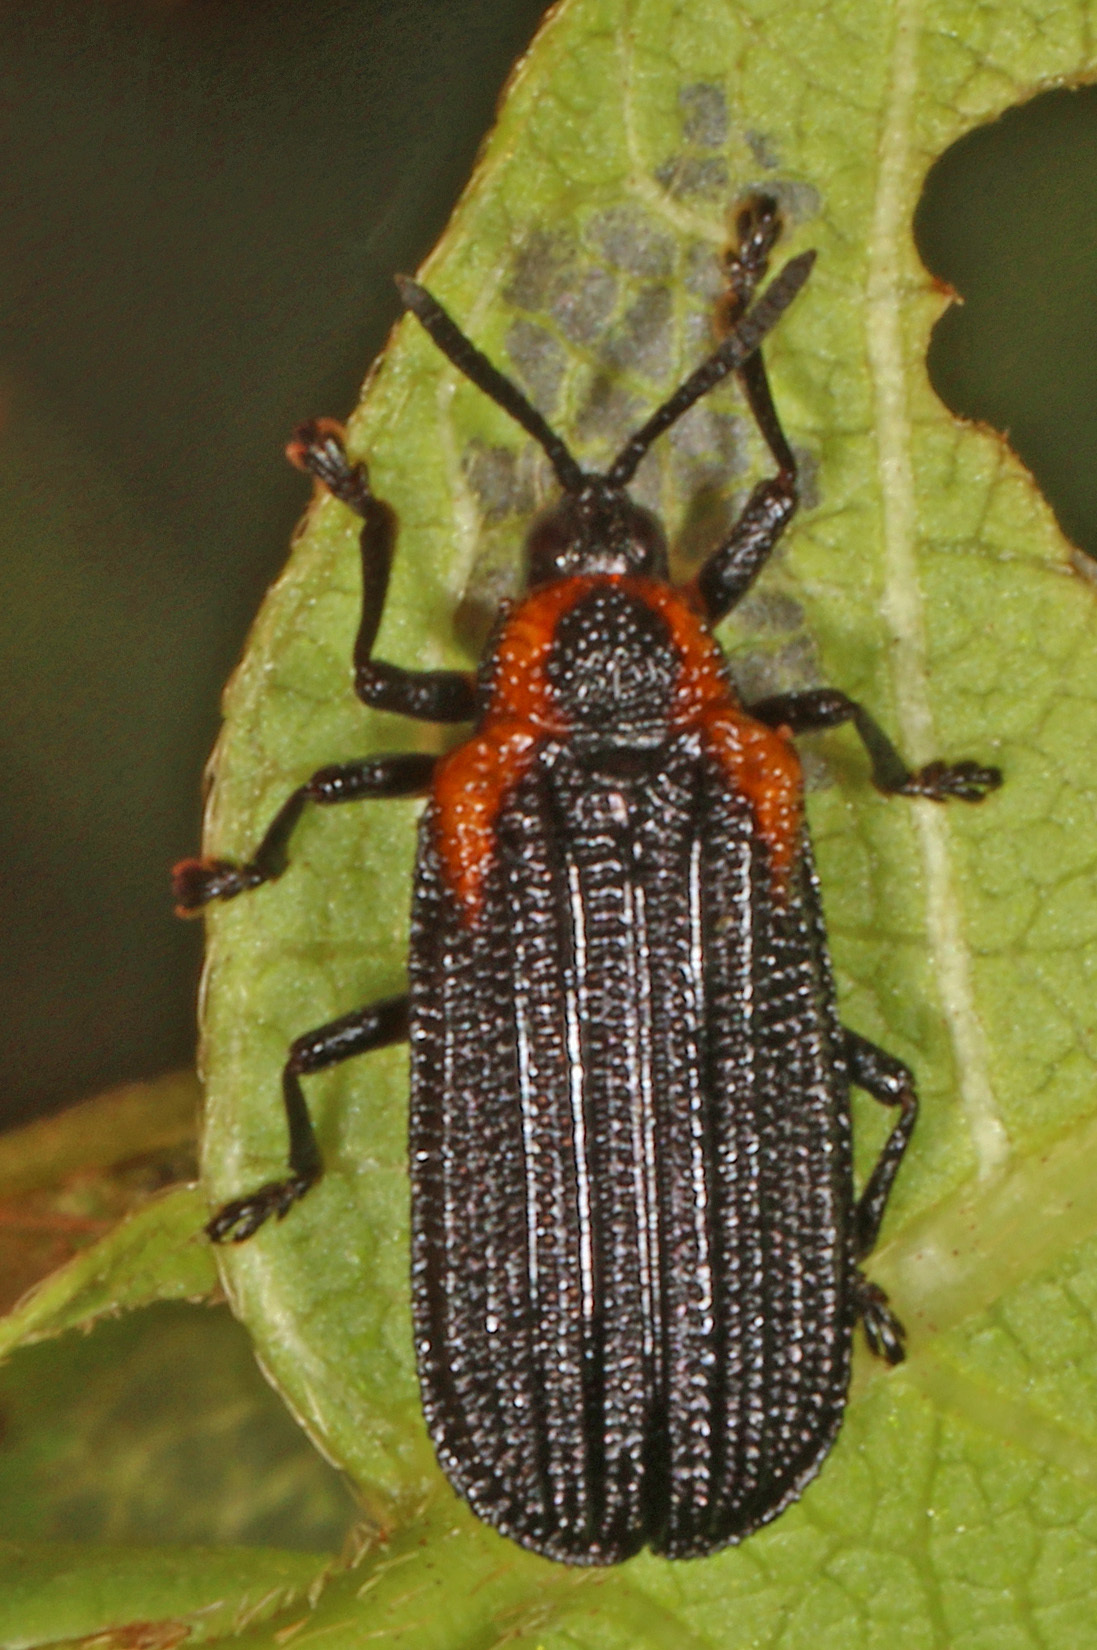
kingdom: Animalia
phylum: Arthropoda
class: Insecta
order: Coleoptera
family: Chrysomelidae
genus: Odontota
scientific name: Odontota scapularis
